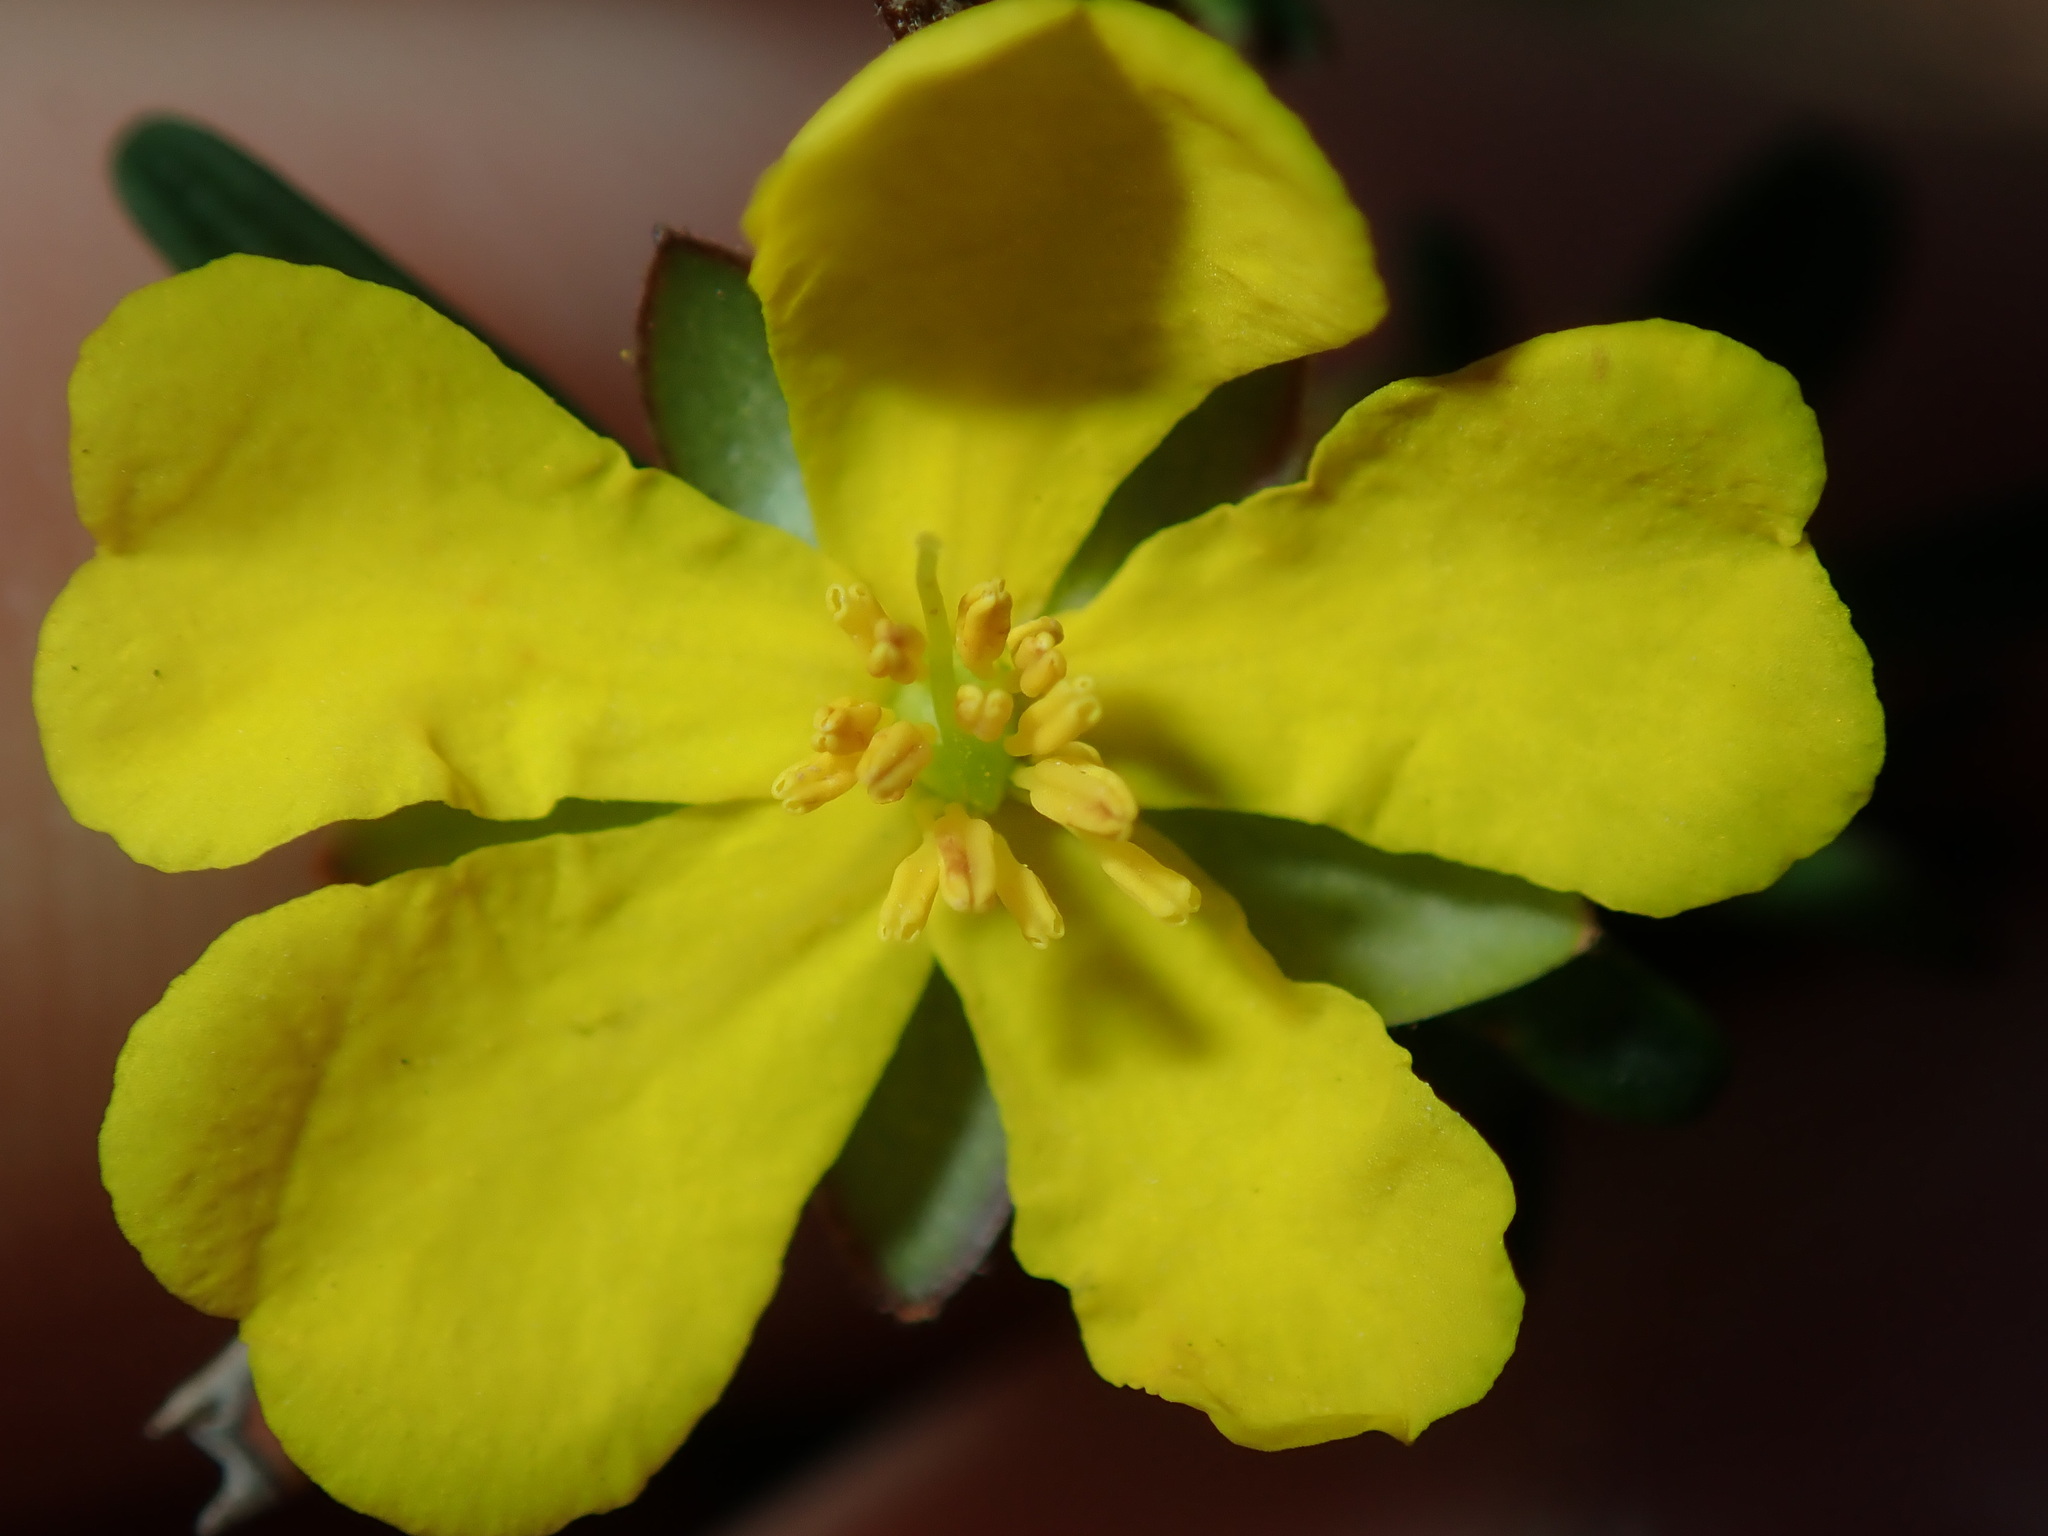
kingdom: Plantae
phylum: Tracheophyta
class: Magnoliopsida
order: Dilleniales
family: Dilleniaceae
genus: Hibbertia
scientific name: Hibbertia monogyna
